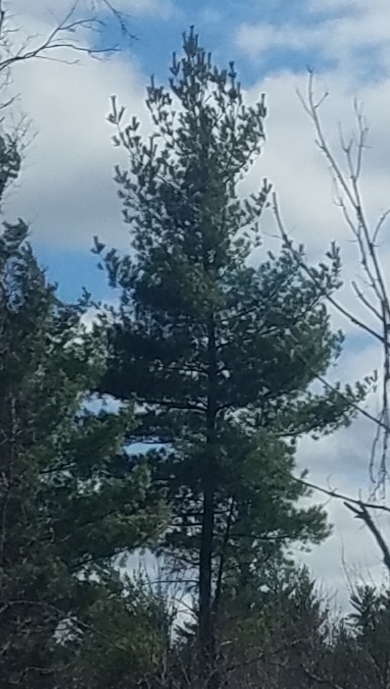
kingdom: Plantae
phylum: Tracheophyta
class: Pinopsida
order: Pinales
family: Pinaceae
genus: Pinus
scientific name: Pinus strobus
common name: Weymouth pine
